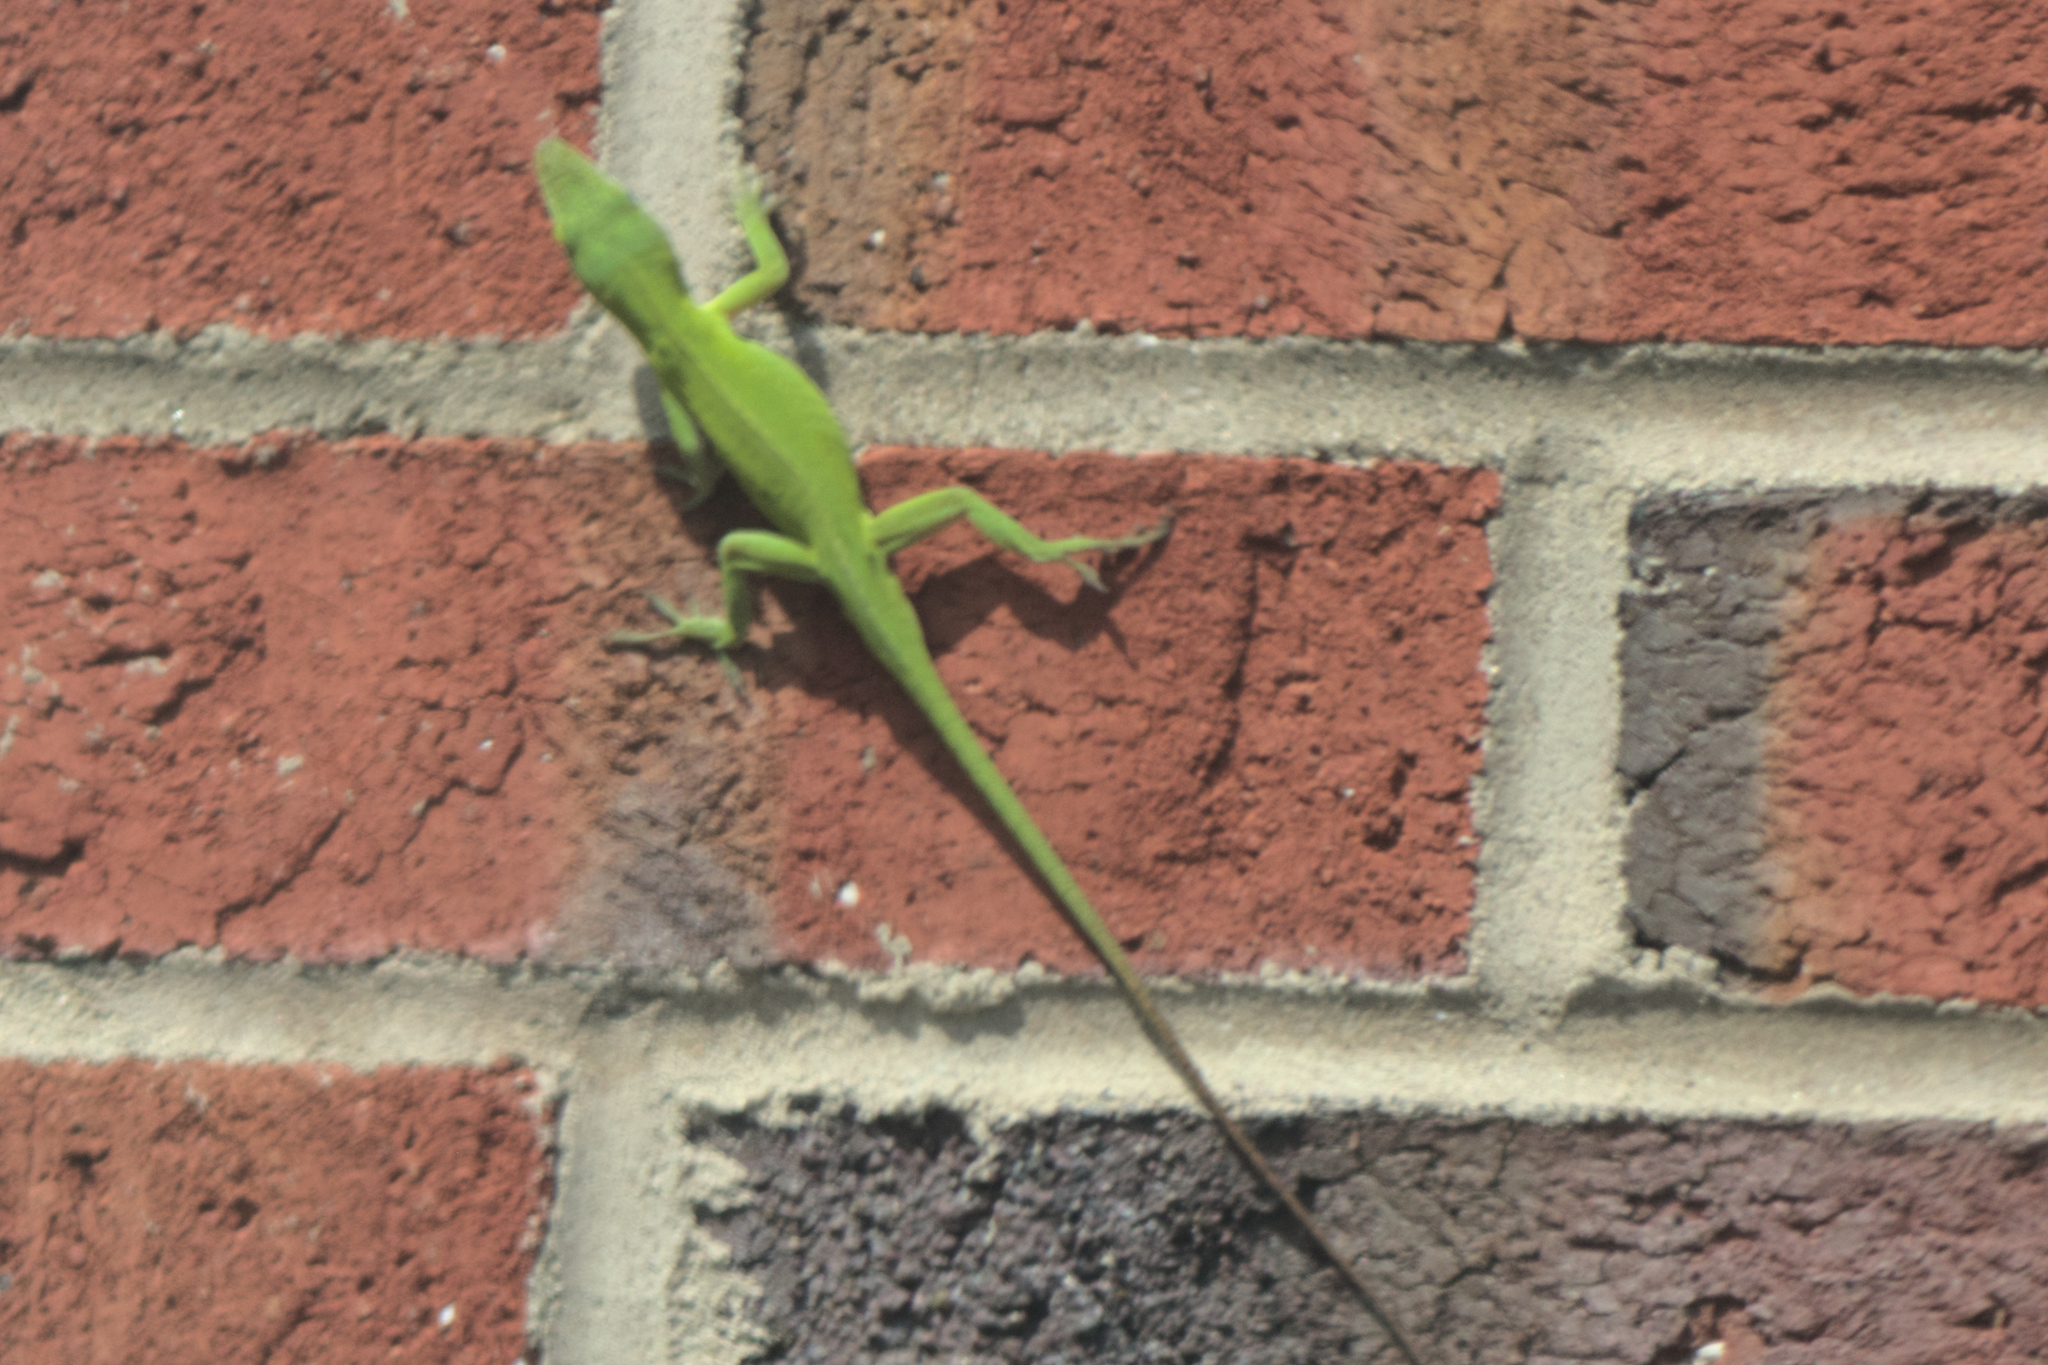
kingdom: Animalia
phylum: Chordata
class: Squamata
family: Dactyloidae
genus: Anolis
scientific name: Anolis carolinensis
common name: Green anole
